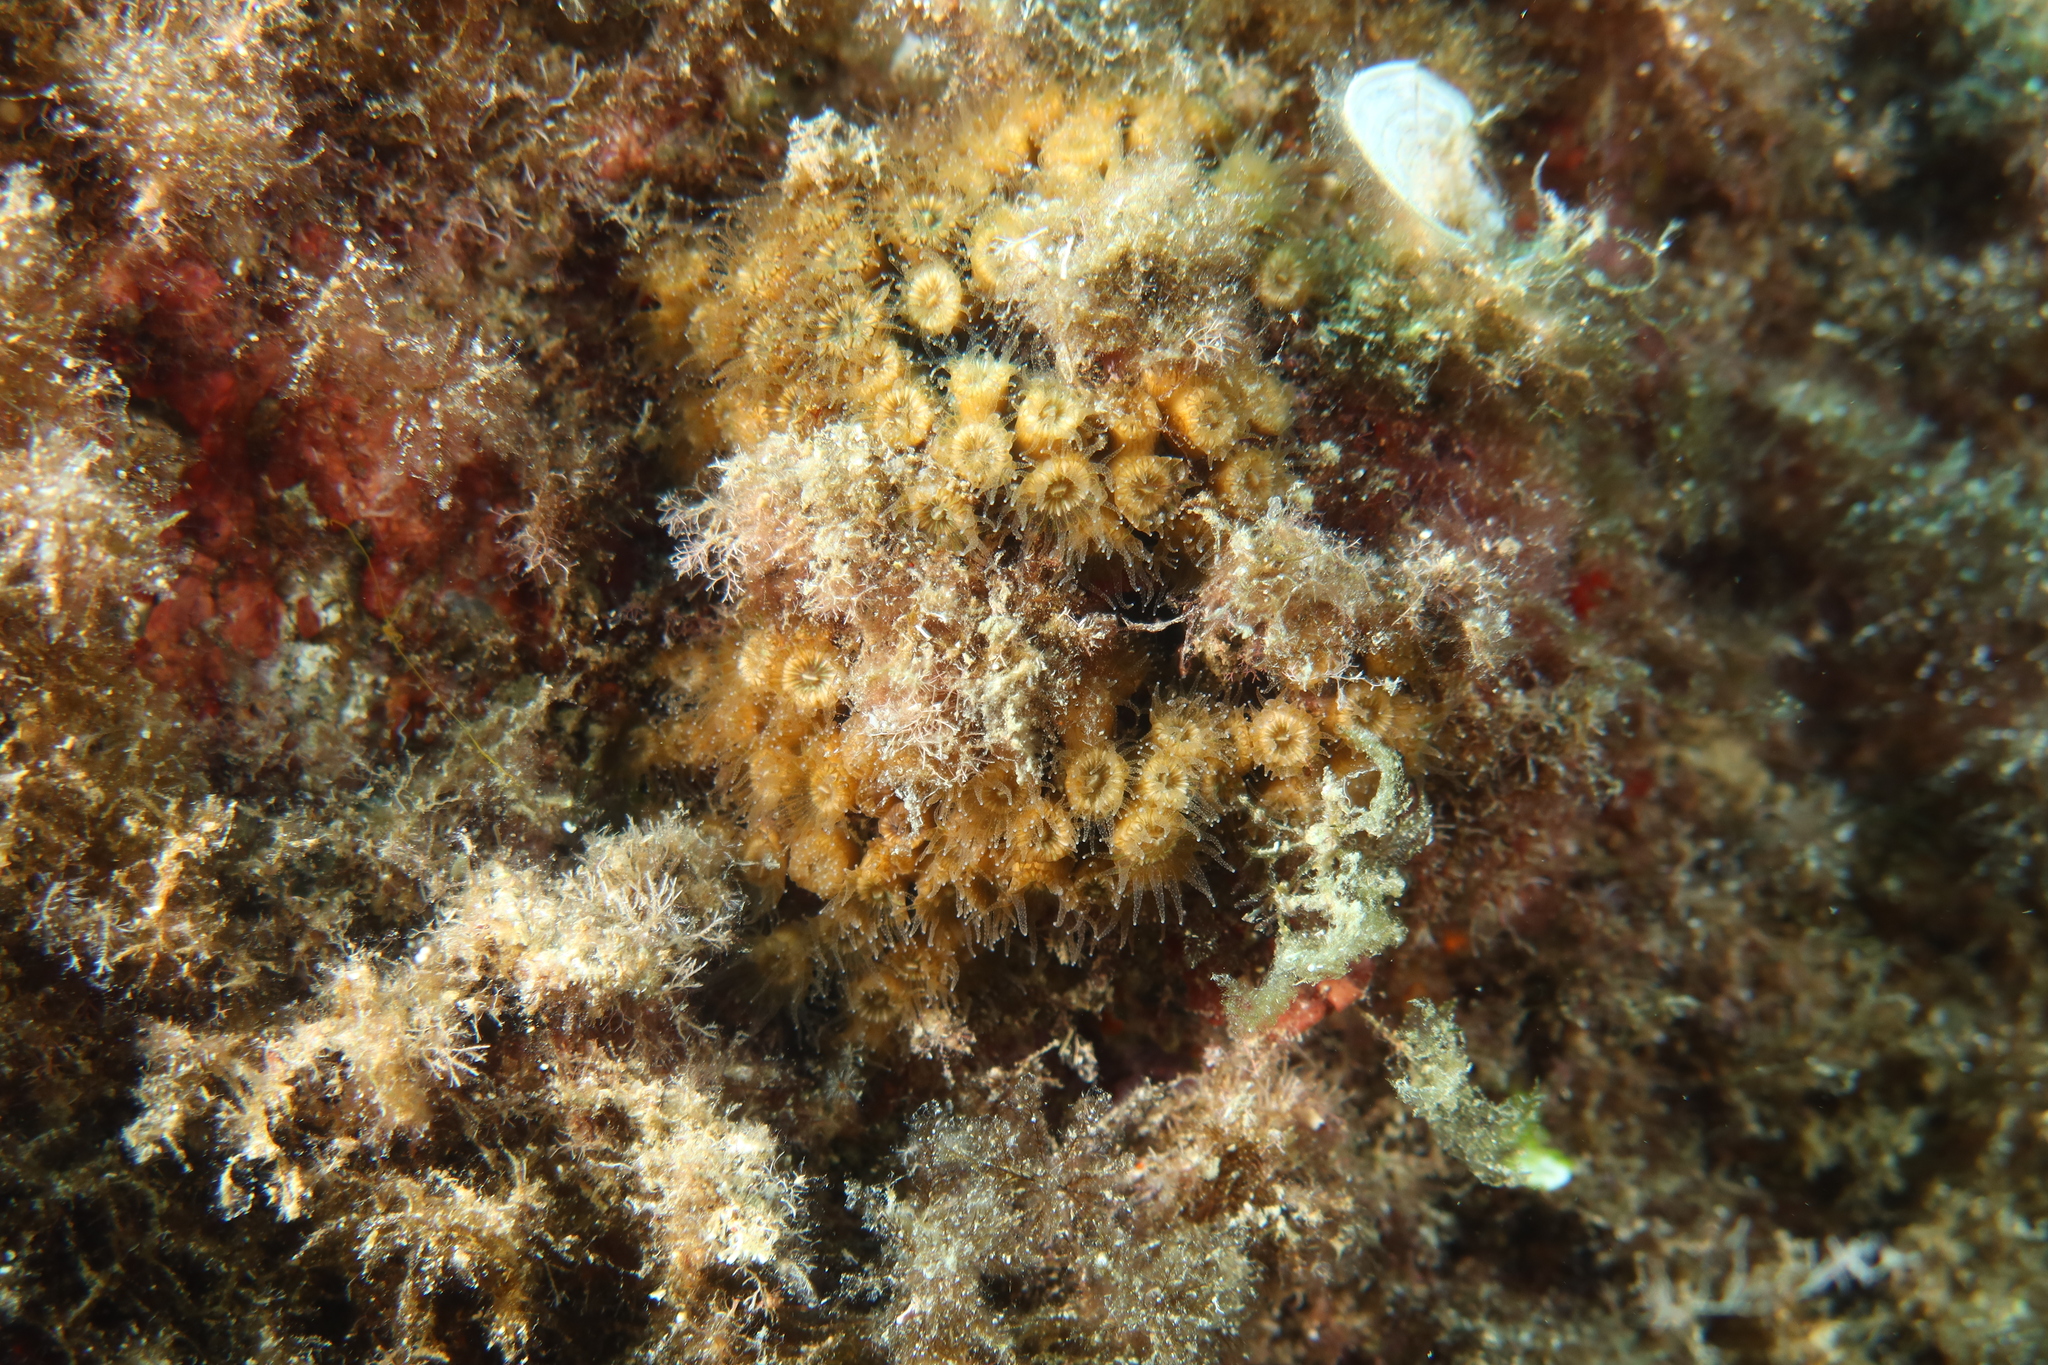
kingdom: Animalia
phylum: Cnidaria
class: Anthozoa
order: Scleractinia
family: Cladocoridae
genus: Cladocora
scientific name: Cladocora caespitosa
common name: Cladocora
